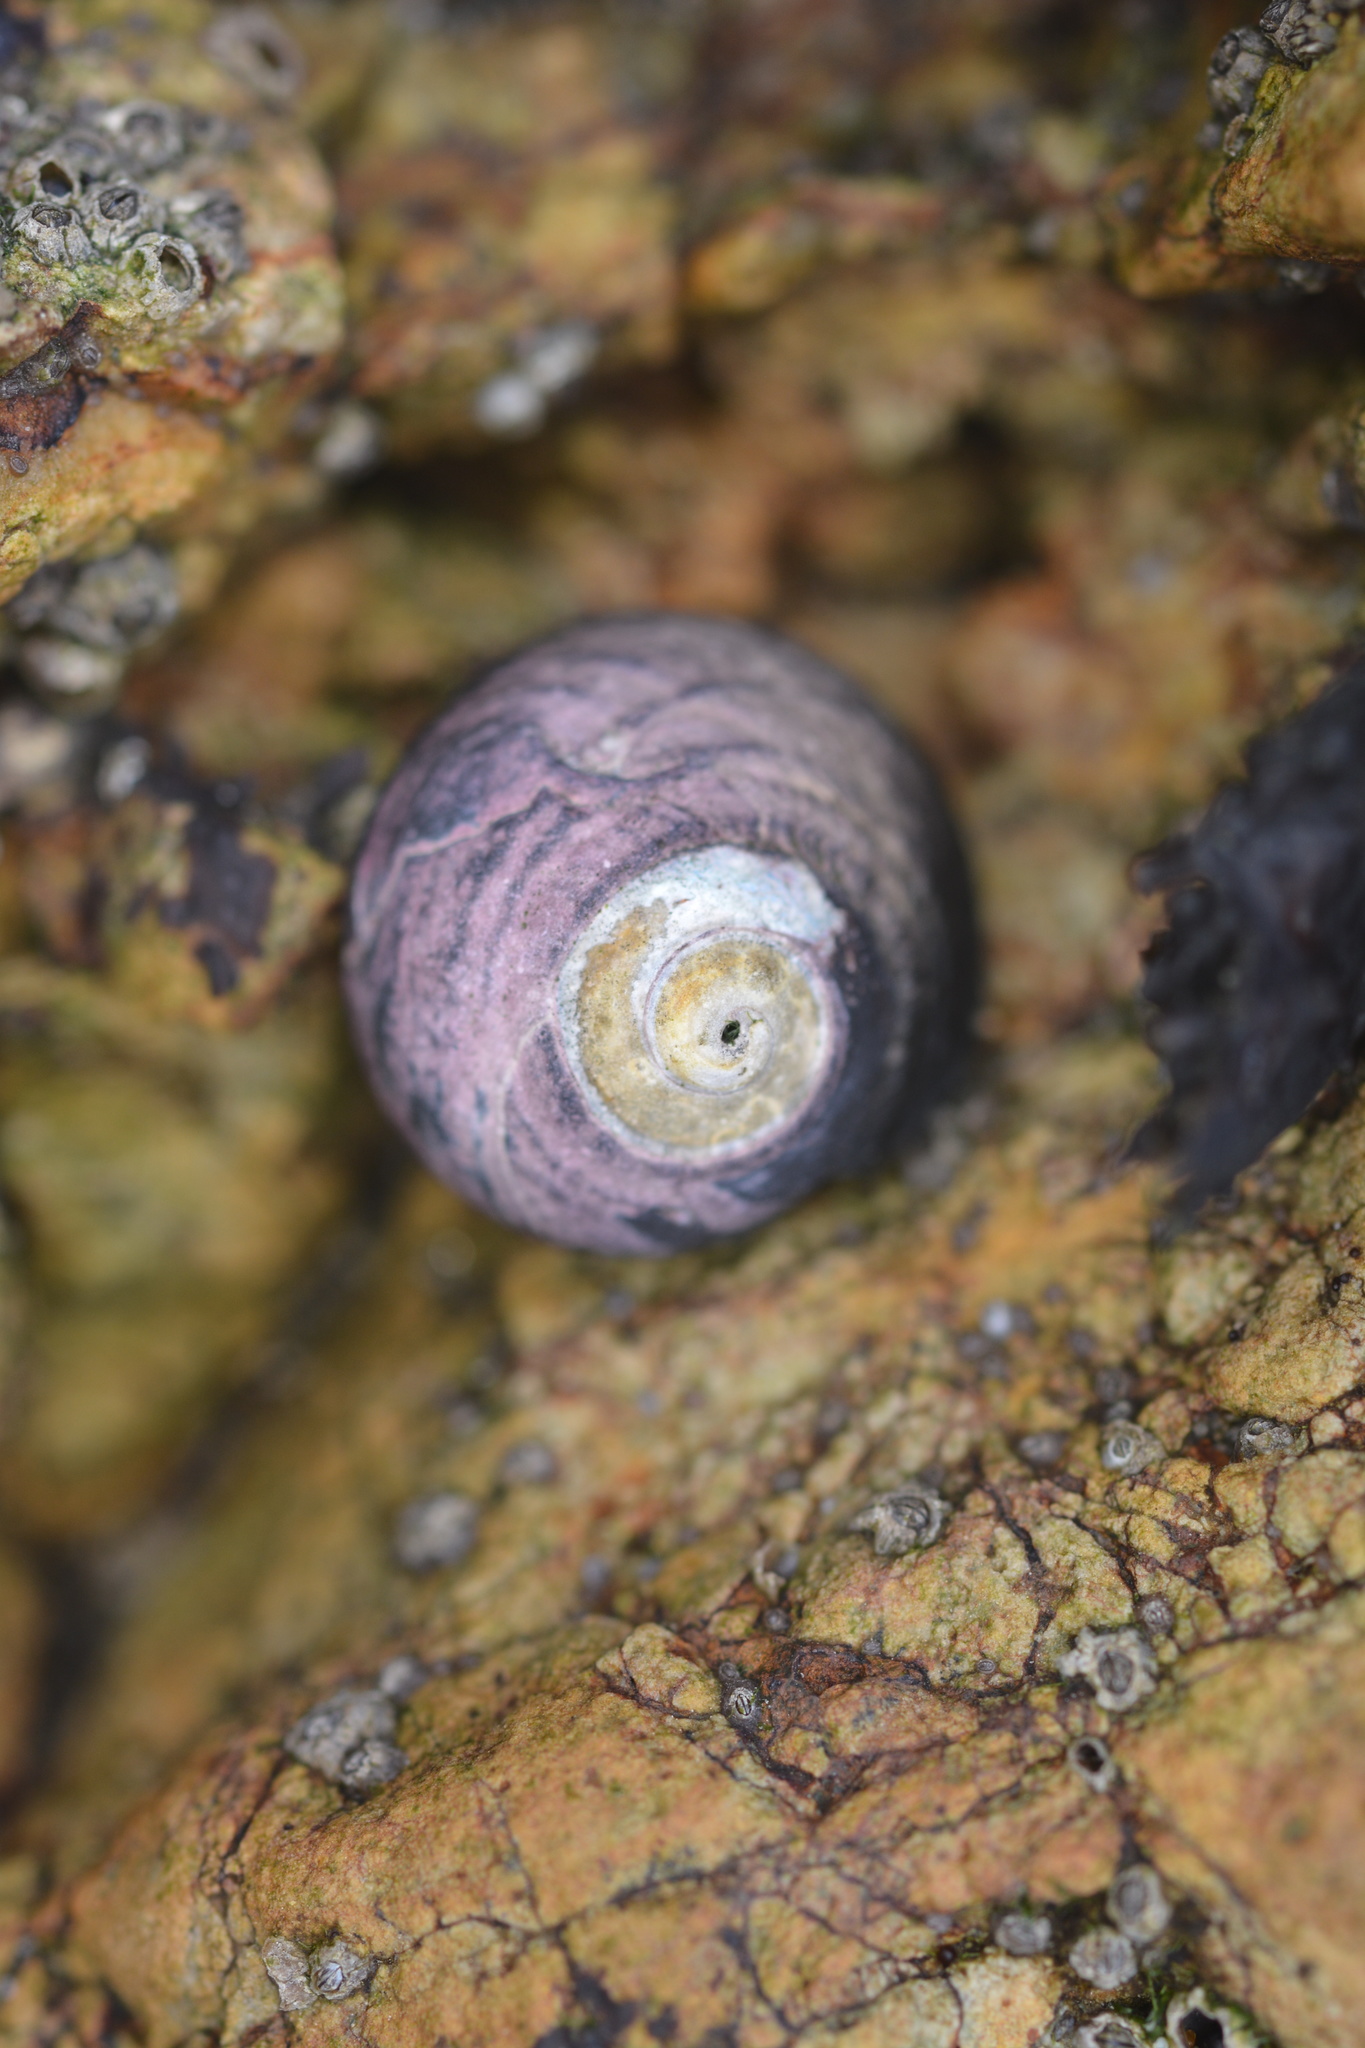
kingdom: Animalia
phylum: Mollusca
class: Gastropoda
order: Trochida
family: Tegulidae
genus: Tegula
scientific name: Tegula funebralis
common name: Black tegula
